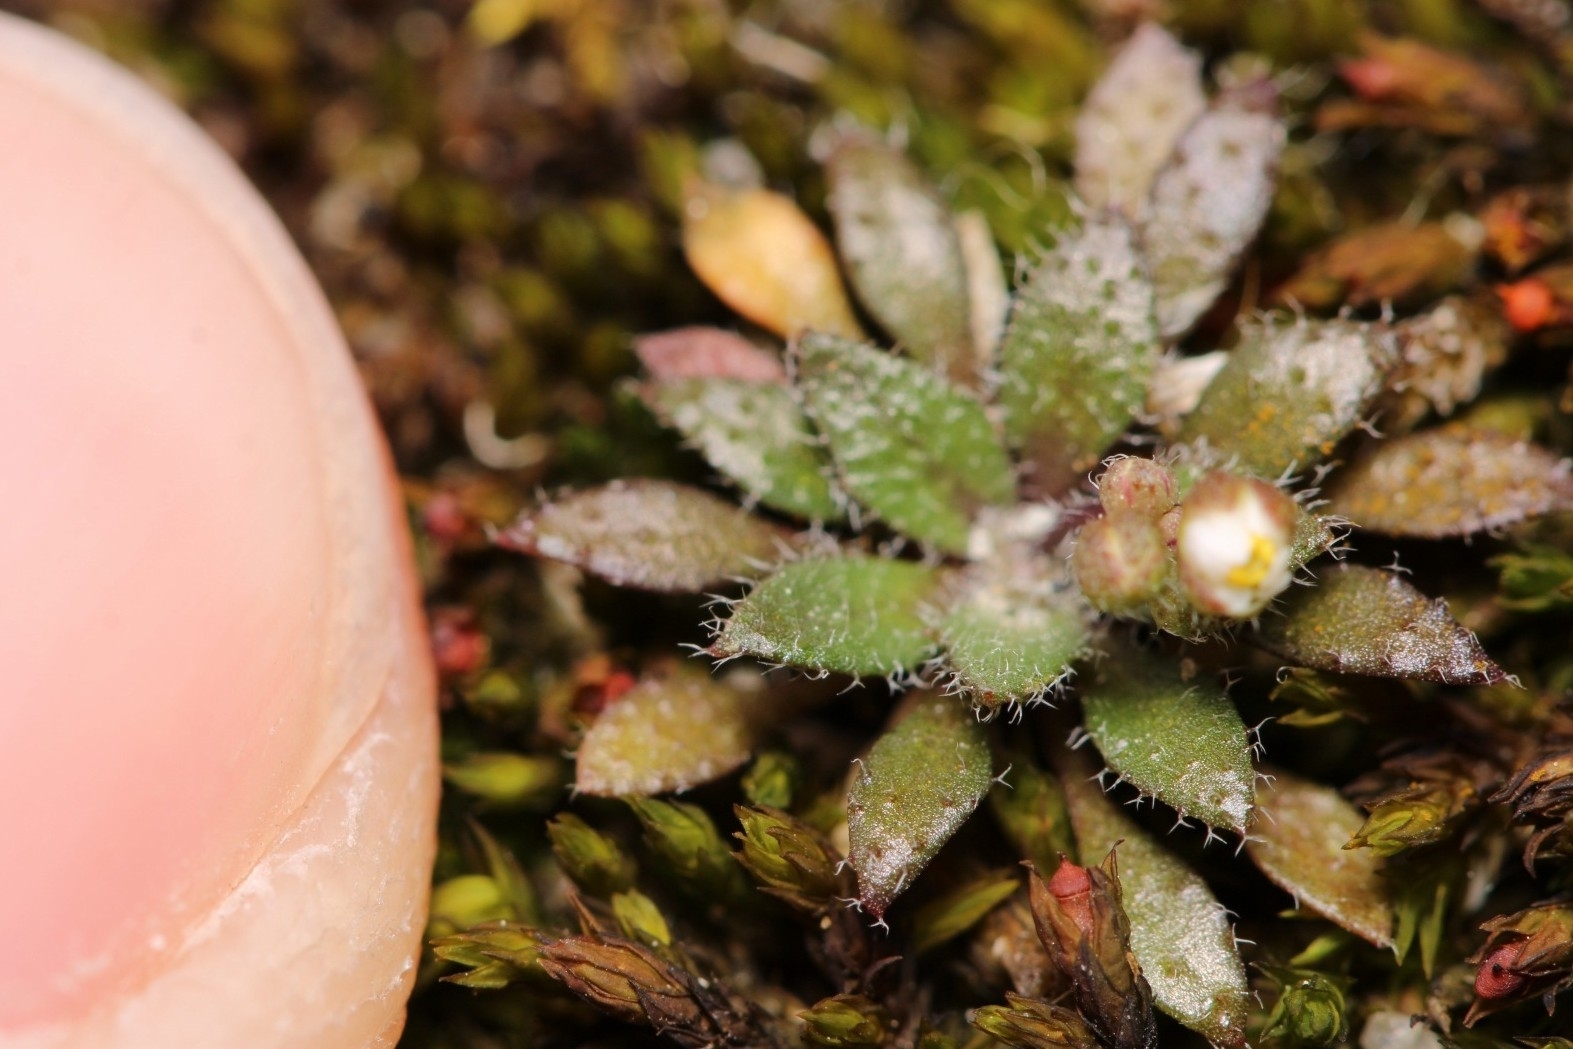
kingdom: Plantae
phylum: Tracheophyta
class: Magnoliopsida
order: Brassicales
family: Brassicaceae
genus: Draba
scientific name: Draba verna
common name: Spring draba
